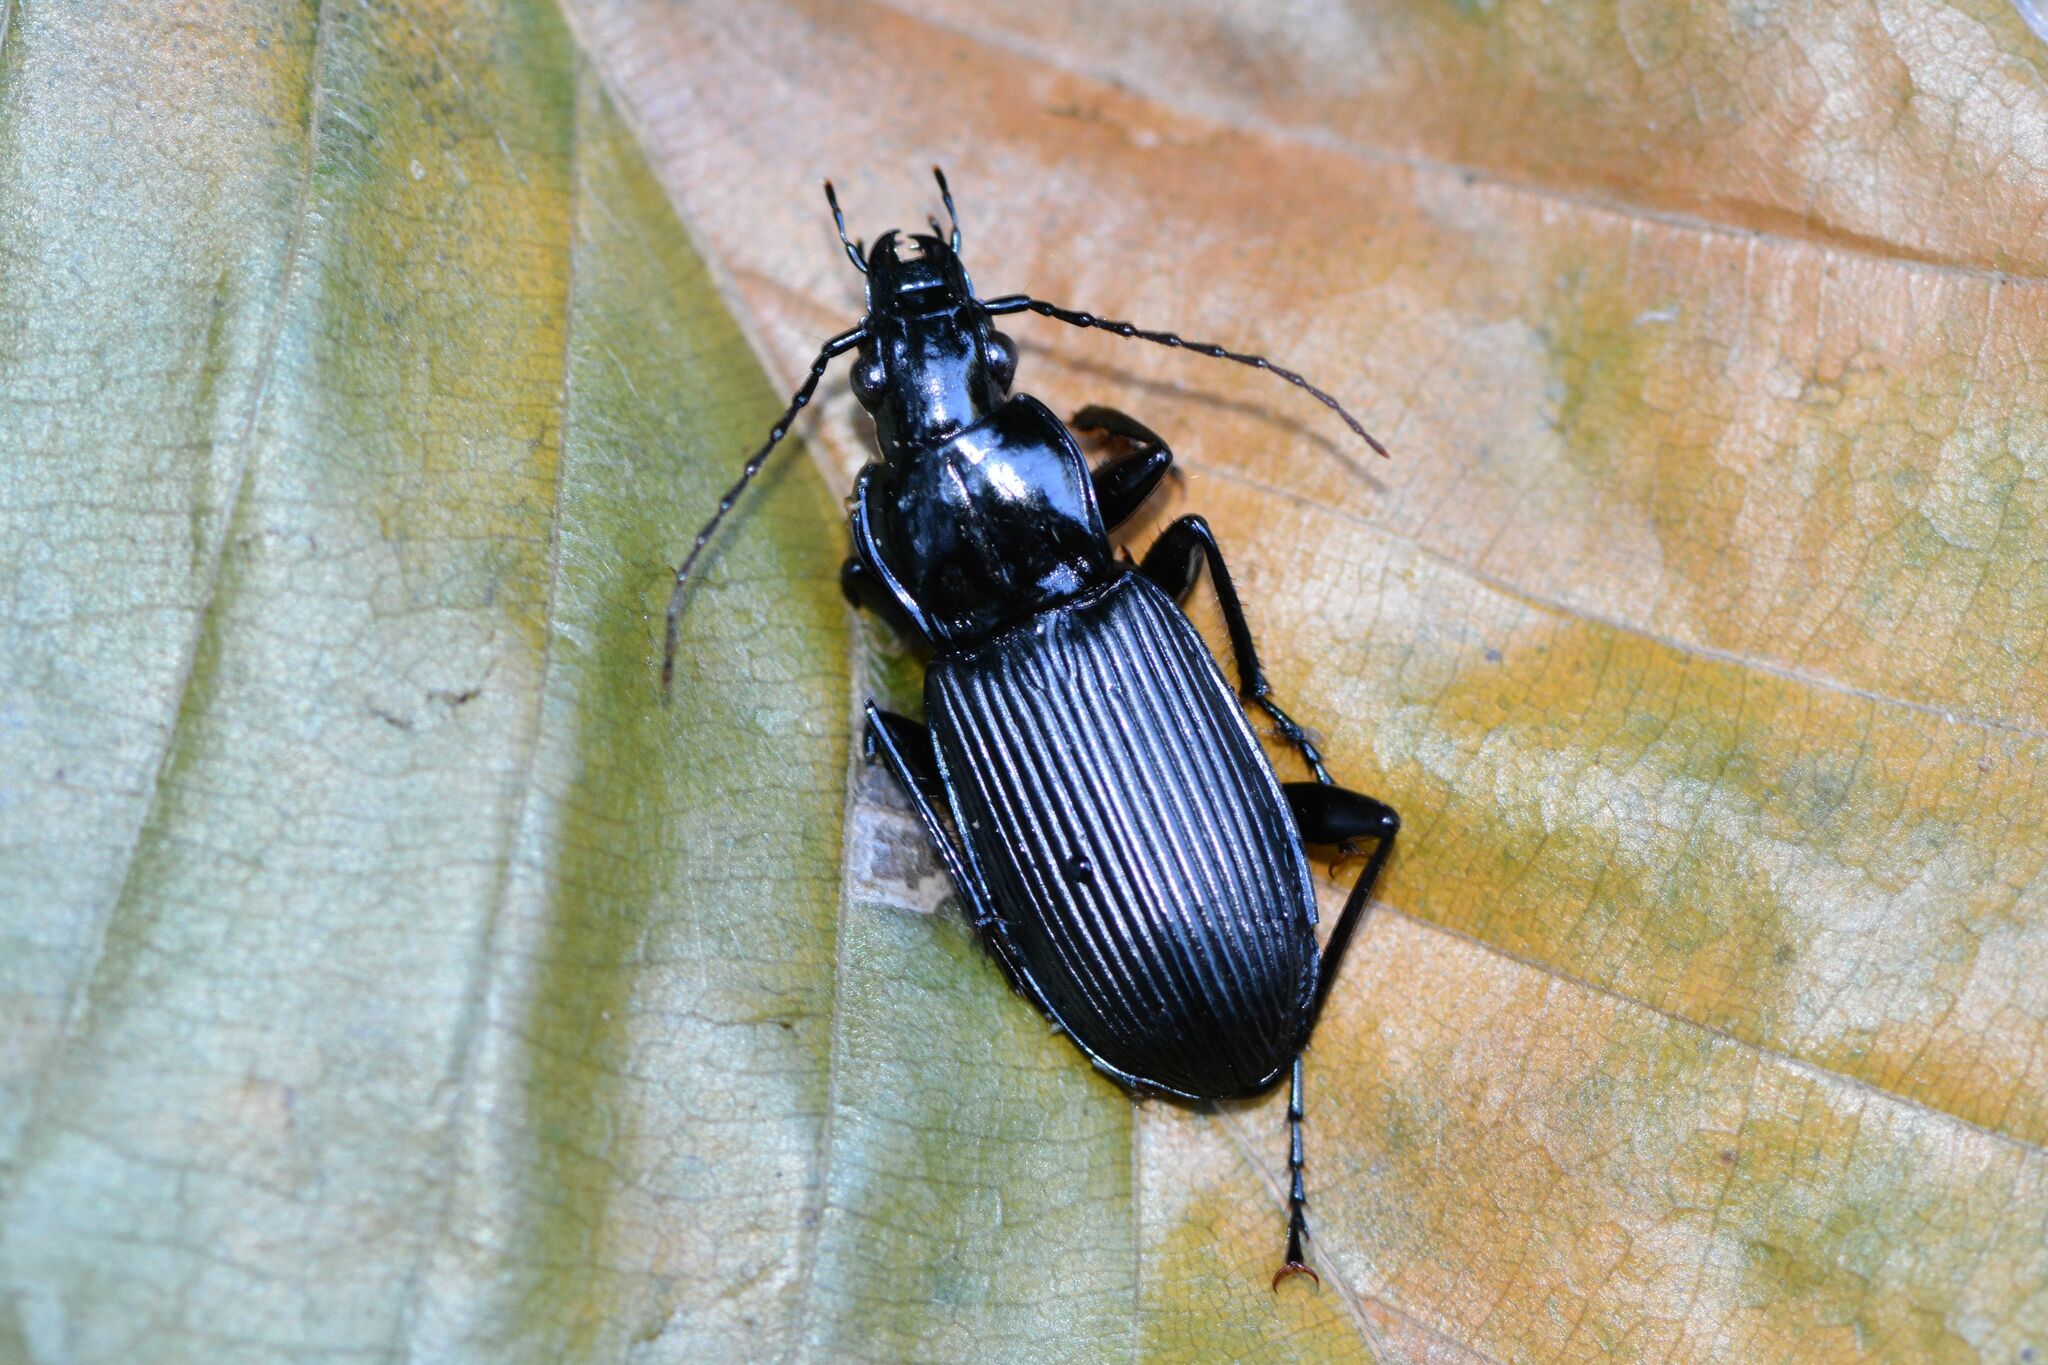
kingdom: Animalia
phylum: Arthropoda
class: Insecta
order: Coleoptera
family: Carabidae
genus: Pterostichus
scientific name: Pterostichus niger
